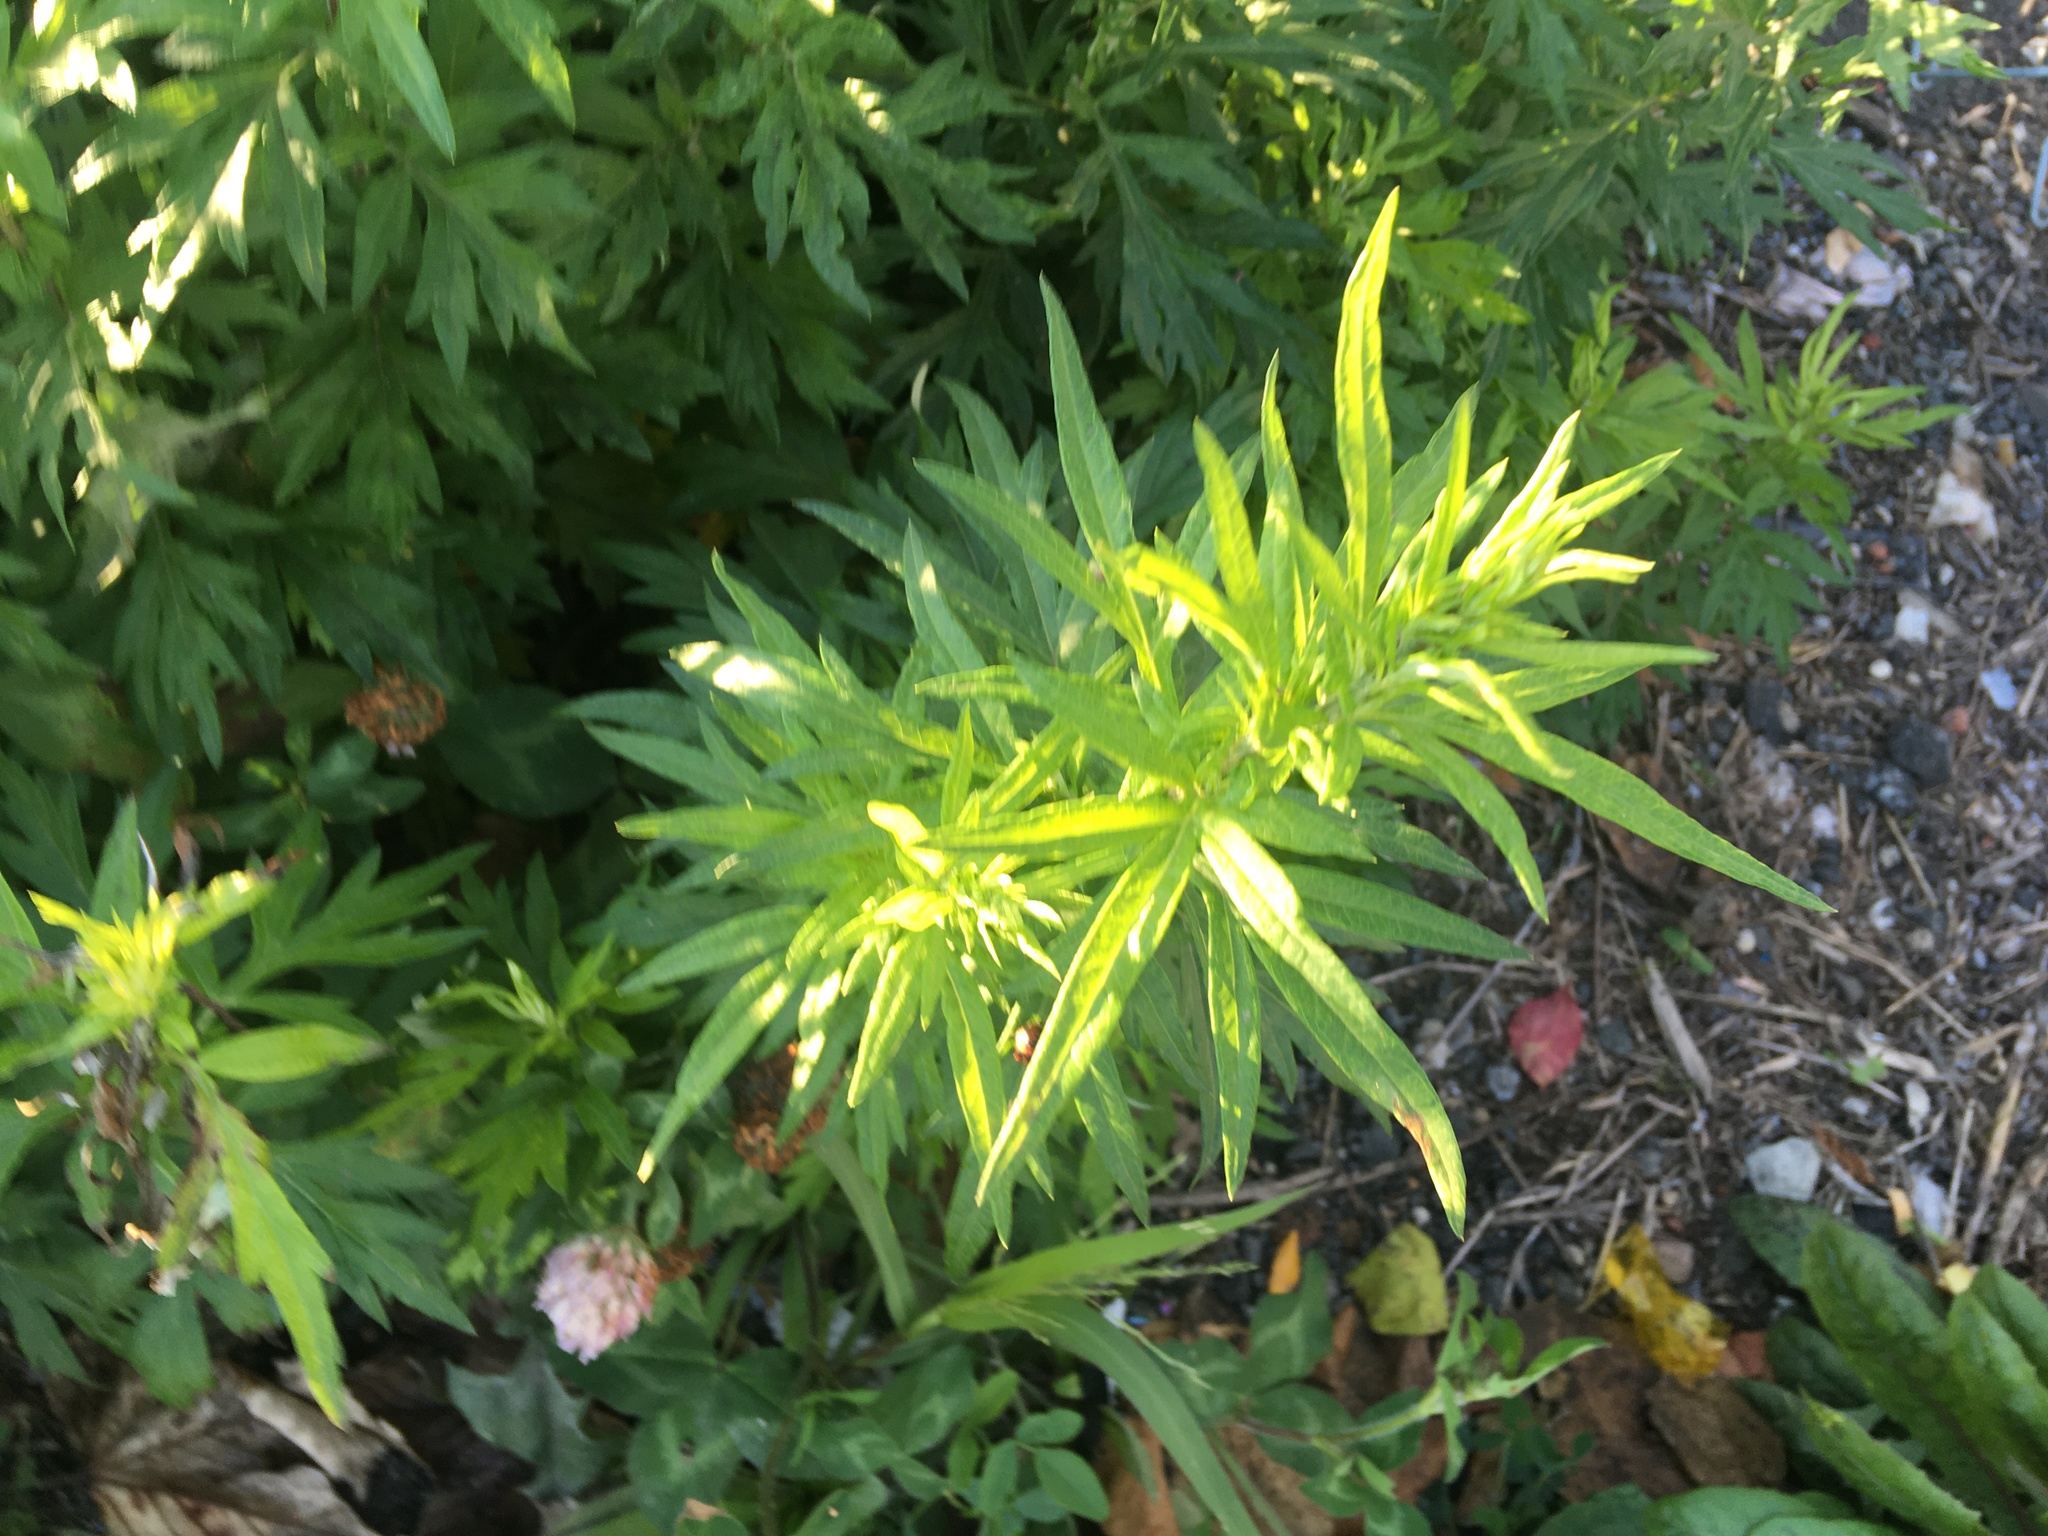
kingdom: Plantae
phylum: Tracheophyta
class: Magnoliopsida
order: Asterales
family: Asteraceae
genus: Artemisia
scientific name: Artemisia vulgaris
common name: Mugwort
